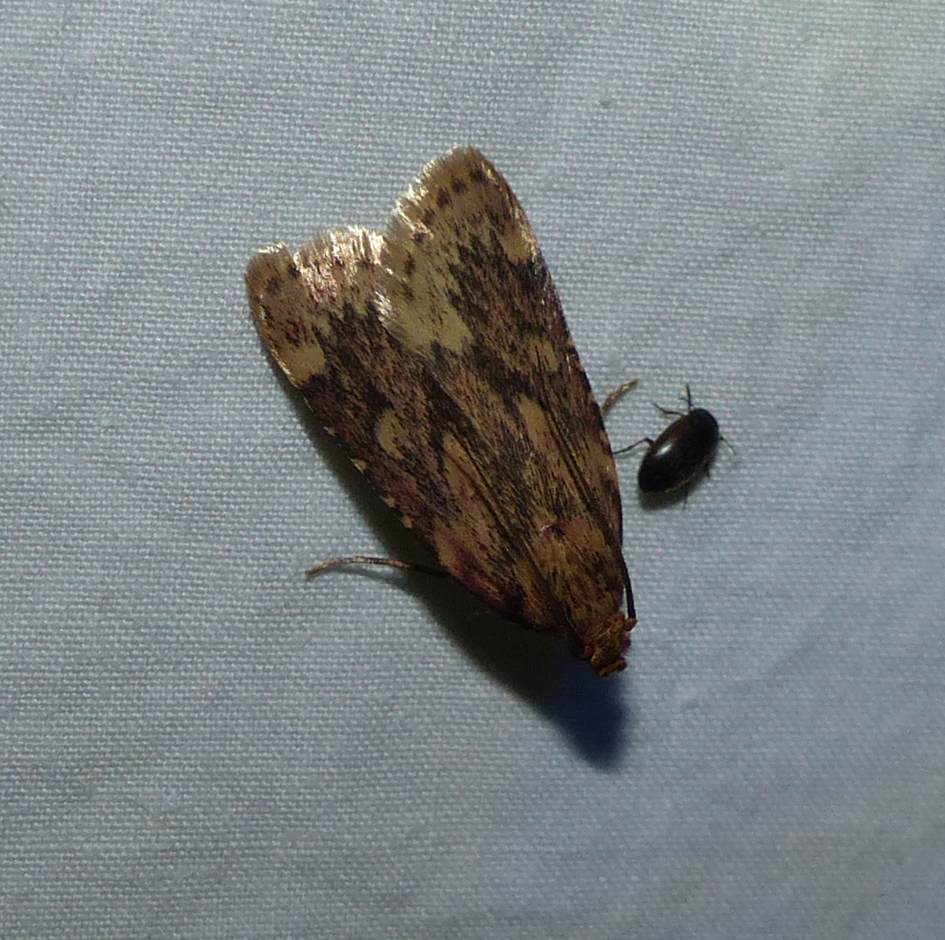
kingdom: Animalia
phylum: Arthropoda
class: Insecta
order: Lepidoptera
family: Pyralidae
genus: Aglossa
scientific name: Aglossa cuprina
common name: Grease moth
